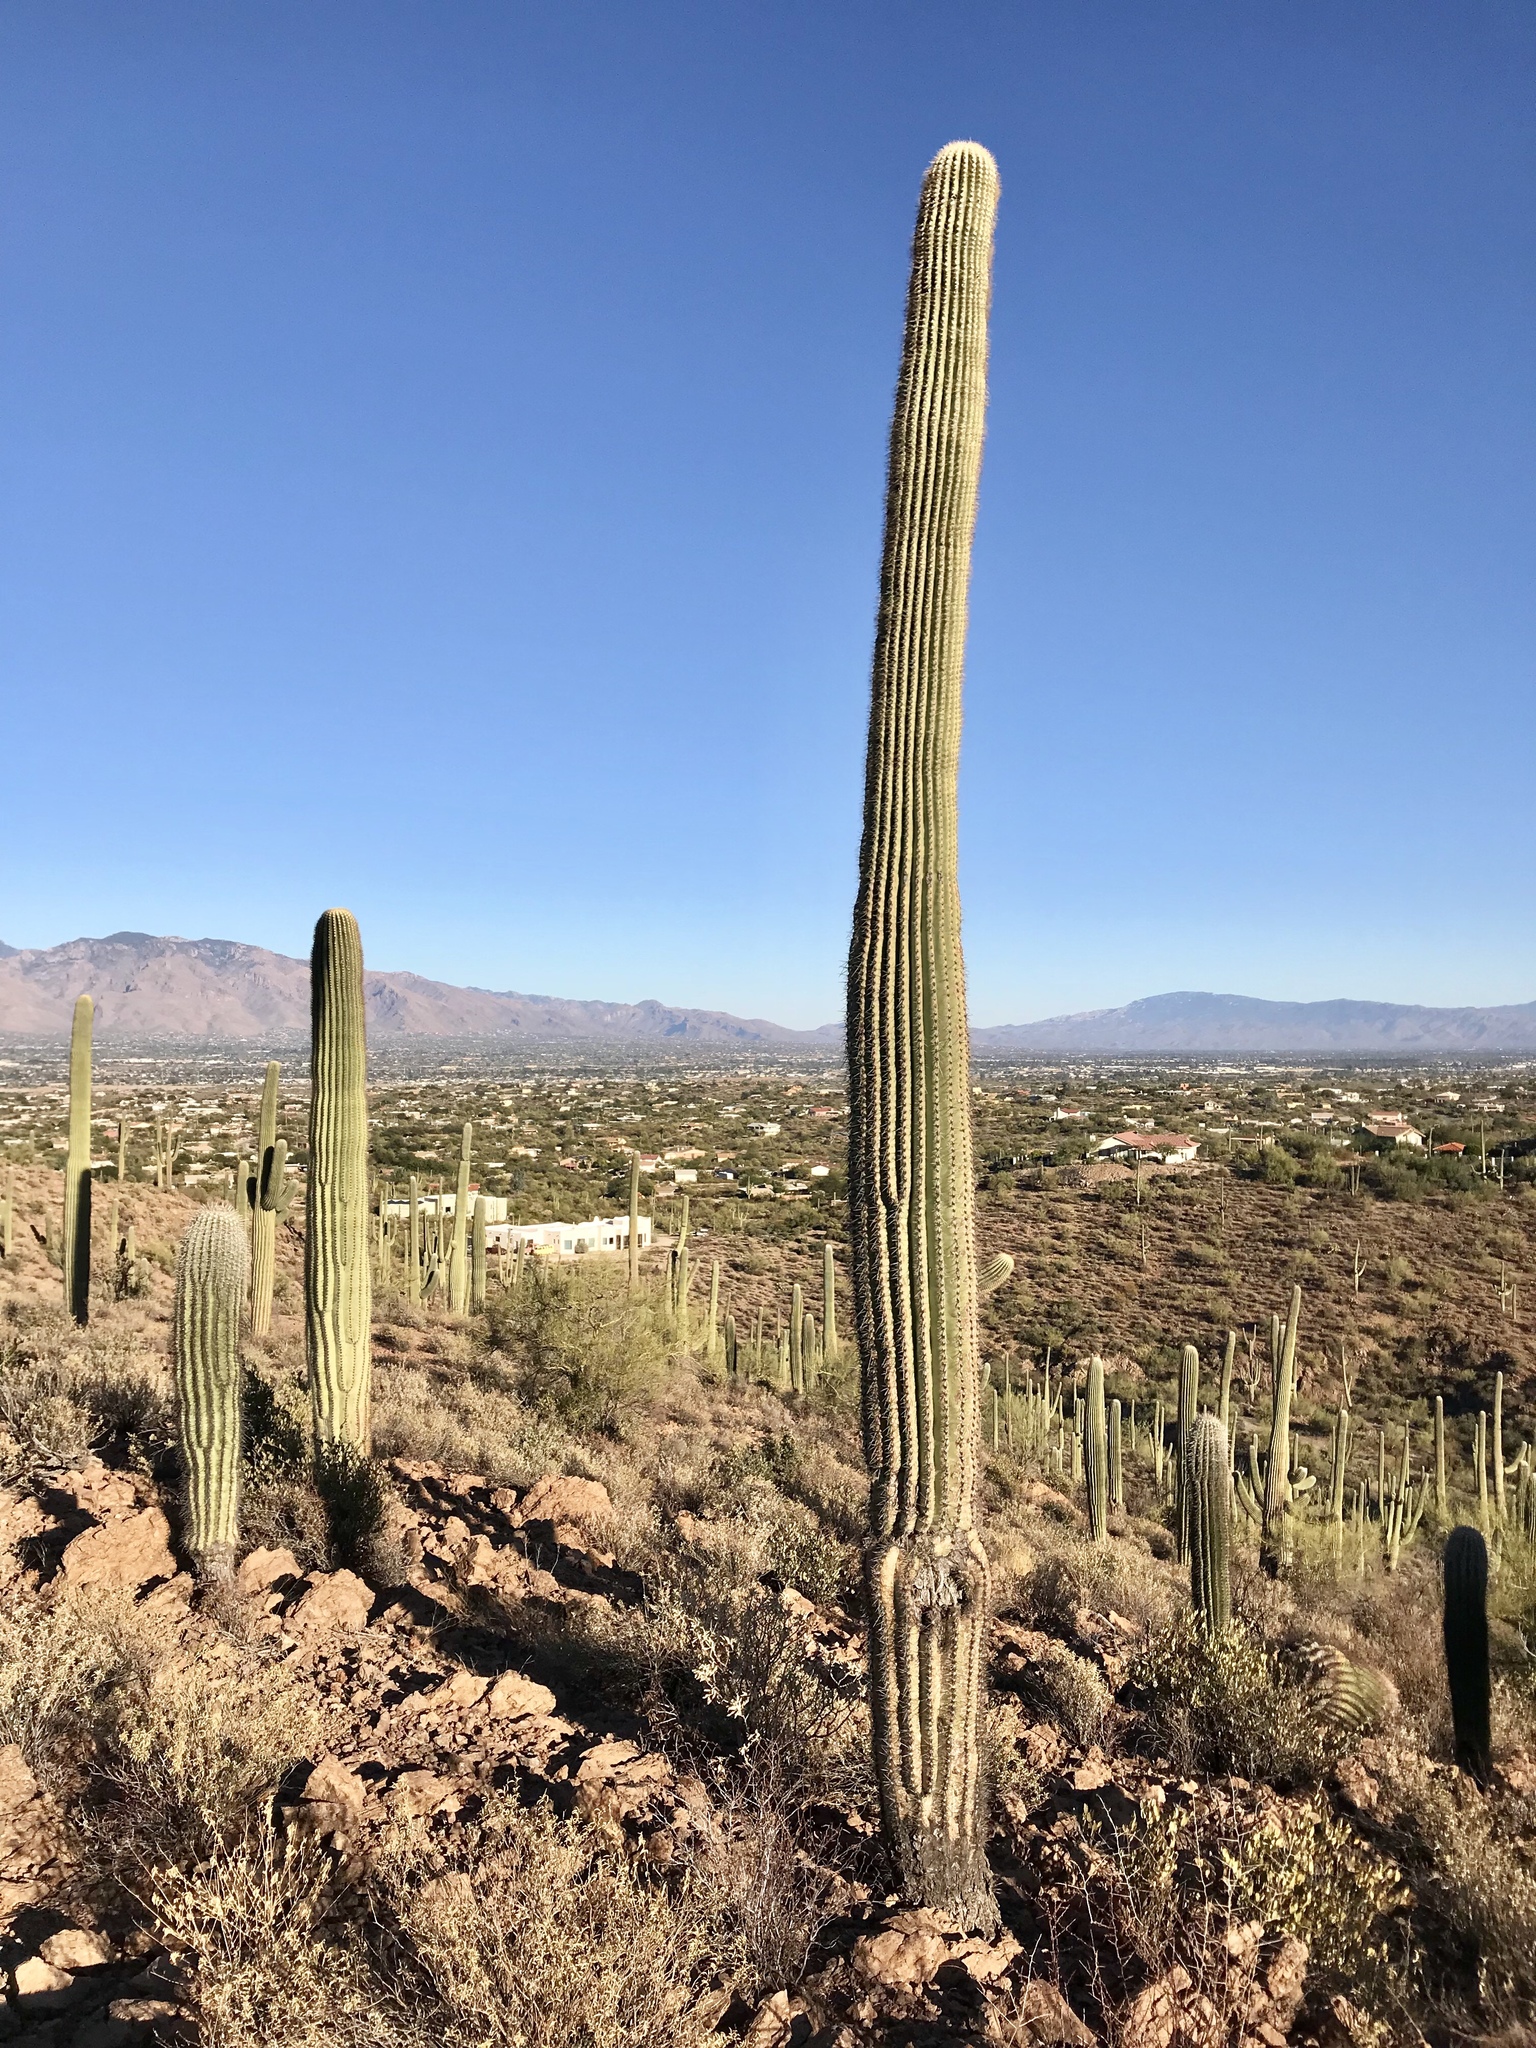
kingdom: Plantae
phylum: Tracheophyta
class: Magnoliopsida
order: Caryophyllales
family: Cactaceae
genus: Carnegiea
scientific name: Carnegiea gigantea
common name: Saguaro
